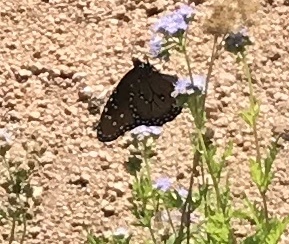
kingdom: Animalia
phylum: Arthropoda
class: Insecta
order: Lepidoptera
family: Nymphalidae
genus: Danaus
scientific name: Danaus gilippus
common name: Queen
